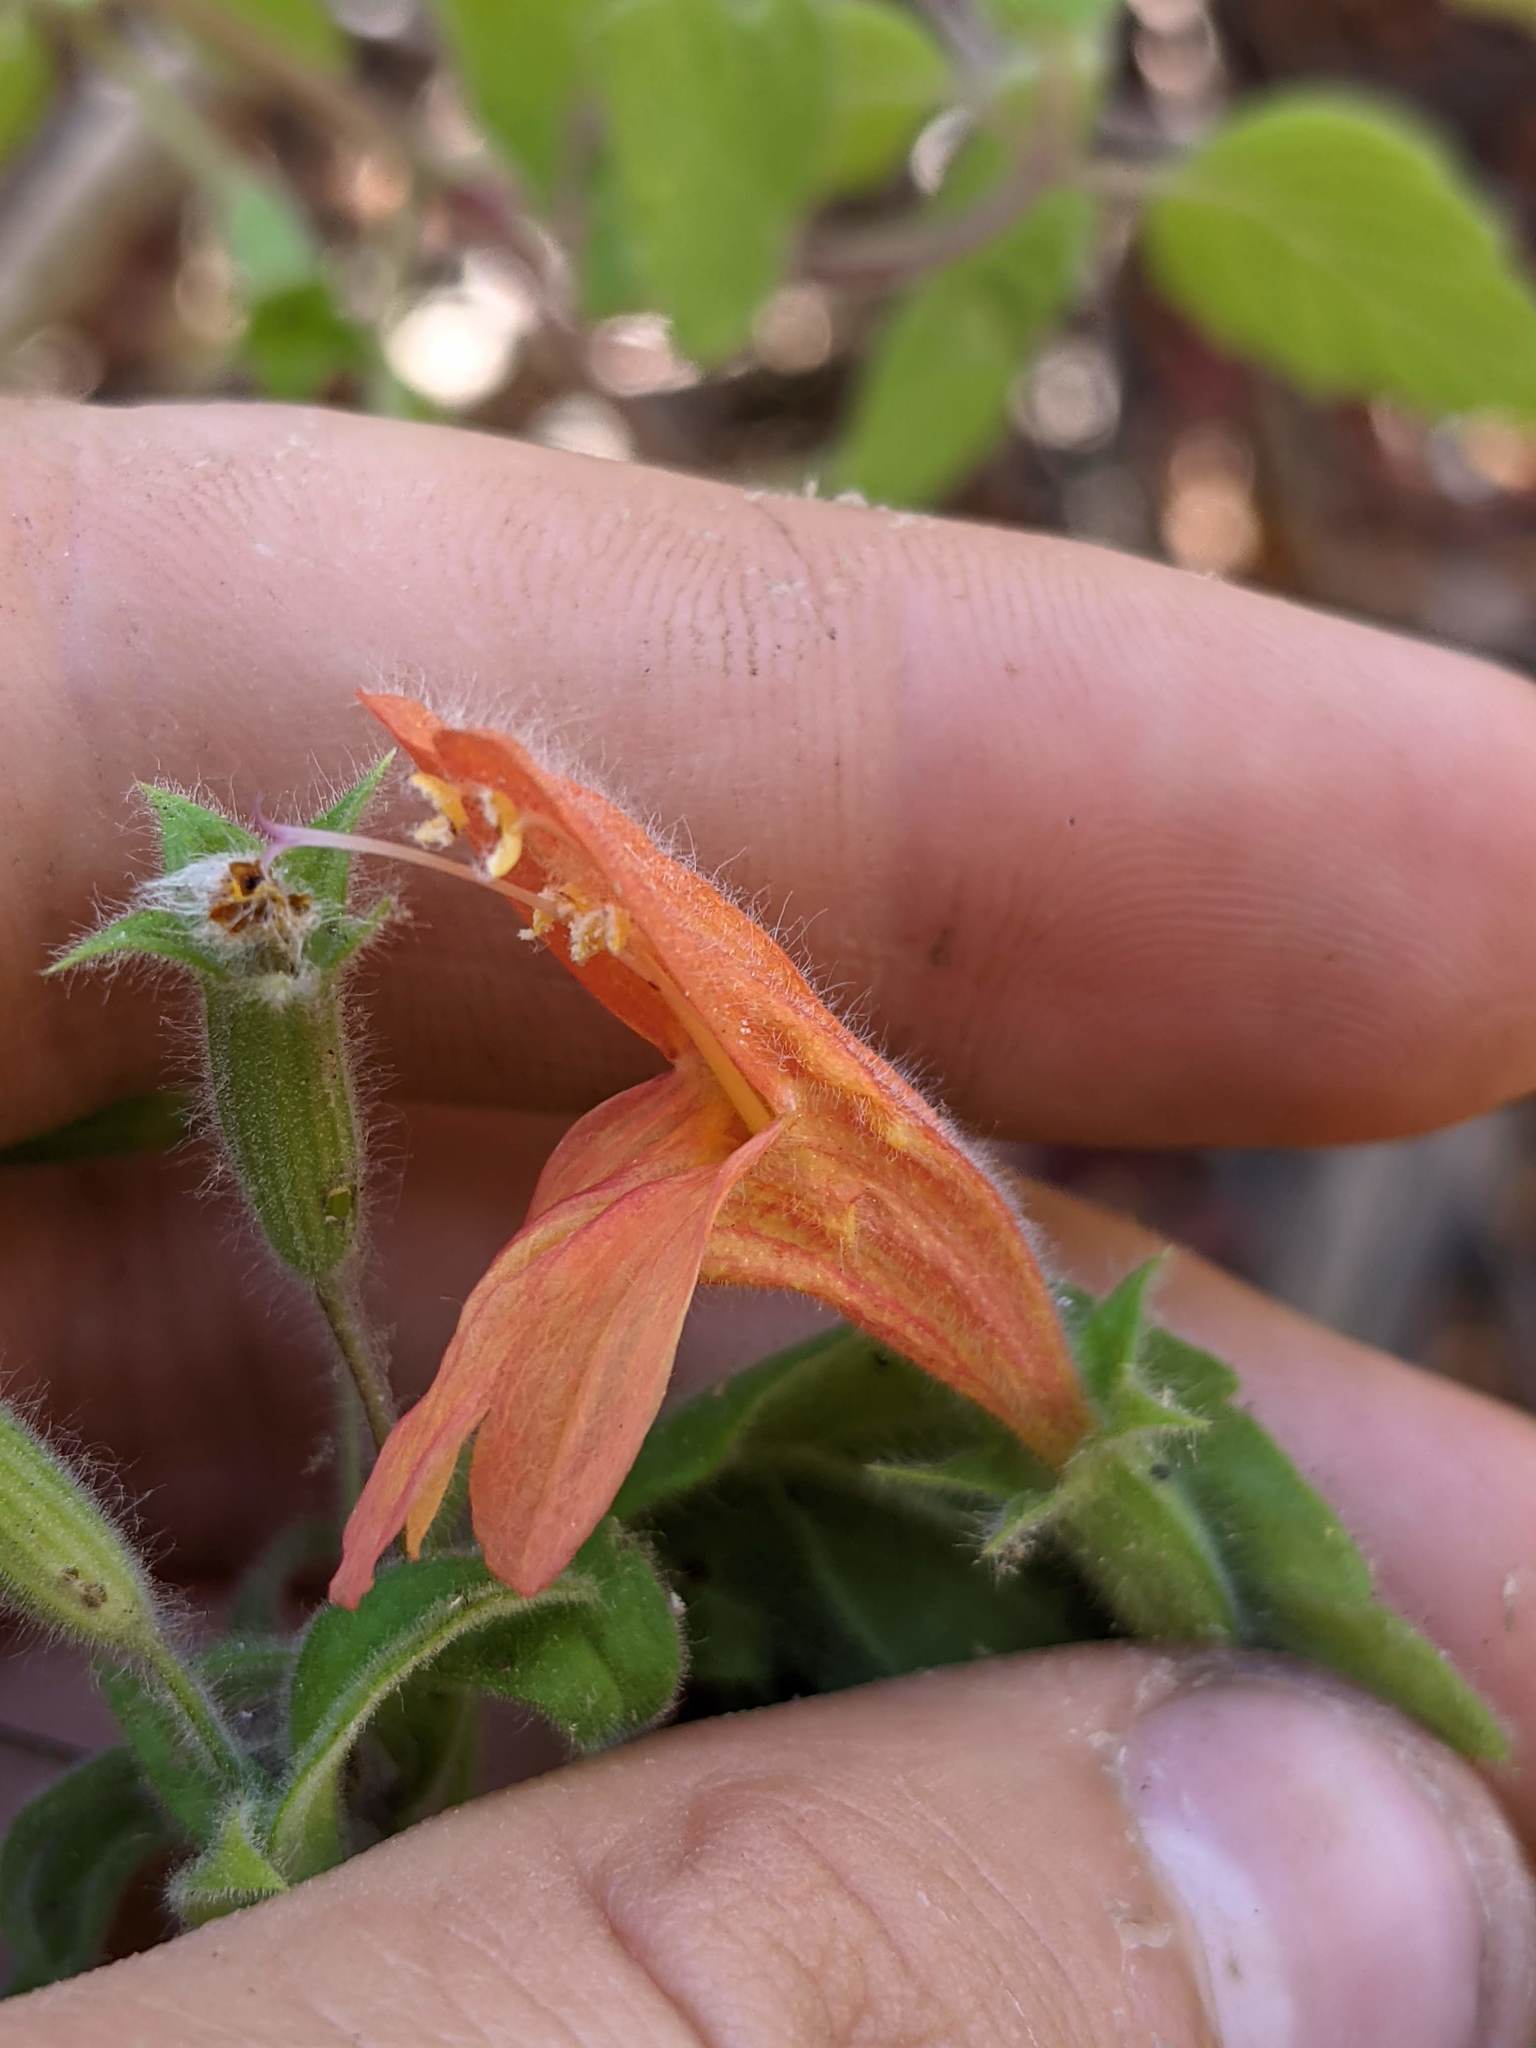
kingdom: Plantae
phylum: Tracheophyta
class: Magnoliopsida
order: Lamiales
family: Lamiaceae
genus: Clinopodium
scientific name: Clinopodium mimuloides
